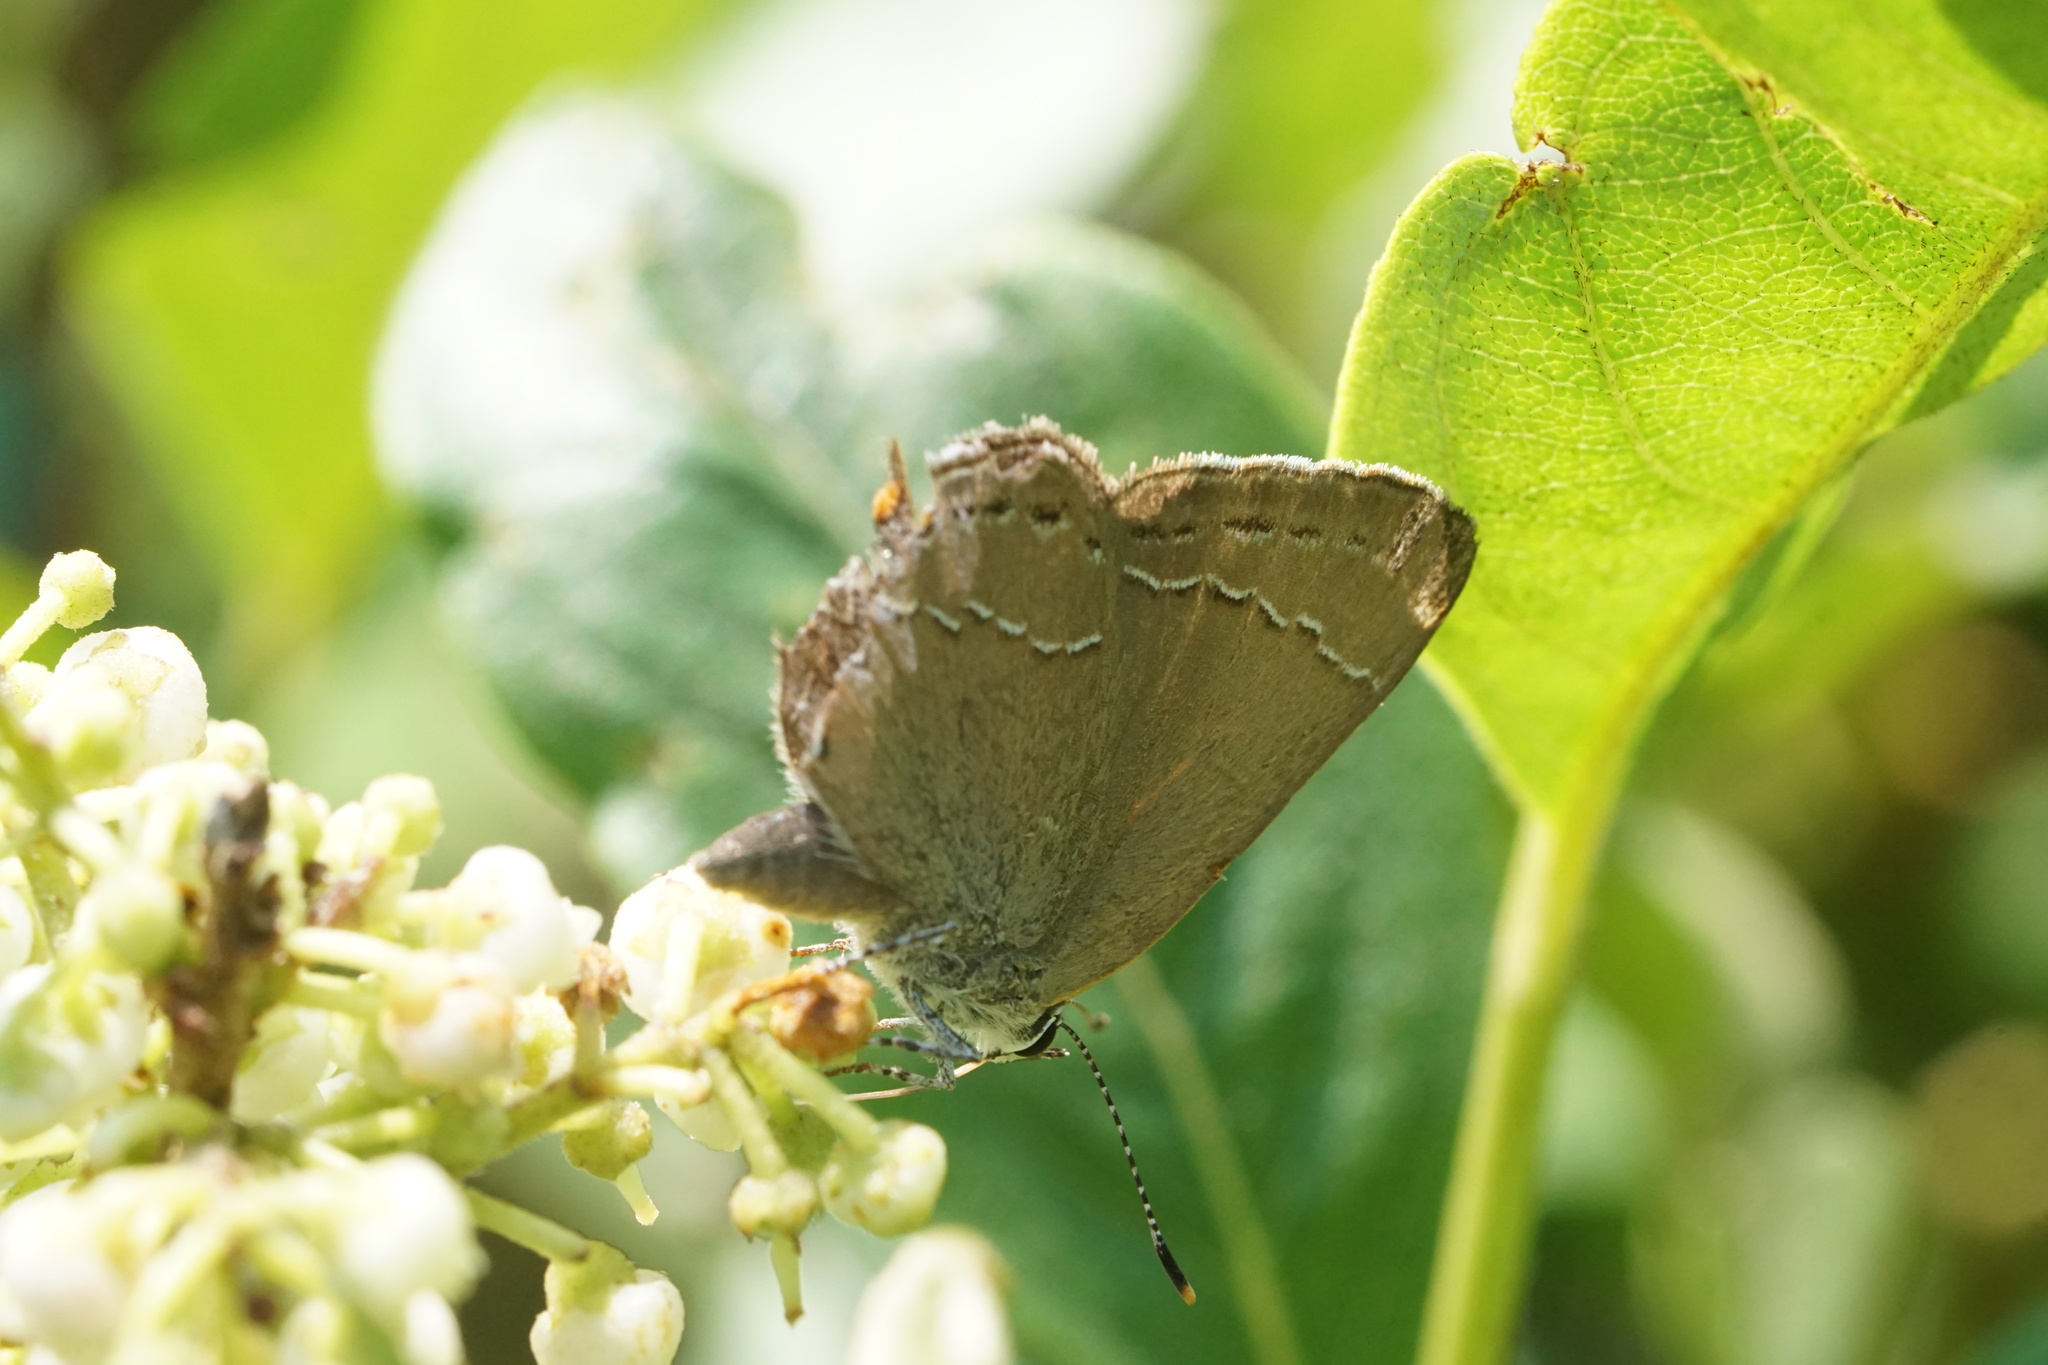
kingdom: Animalia
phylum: Arthropoda
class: Insecta
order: Lepidoptera
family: Lycaenidae
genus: Fixsenia
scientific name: Fixsenia favonius
